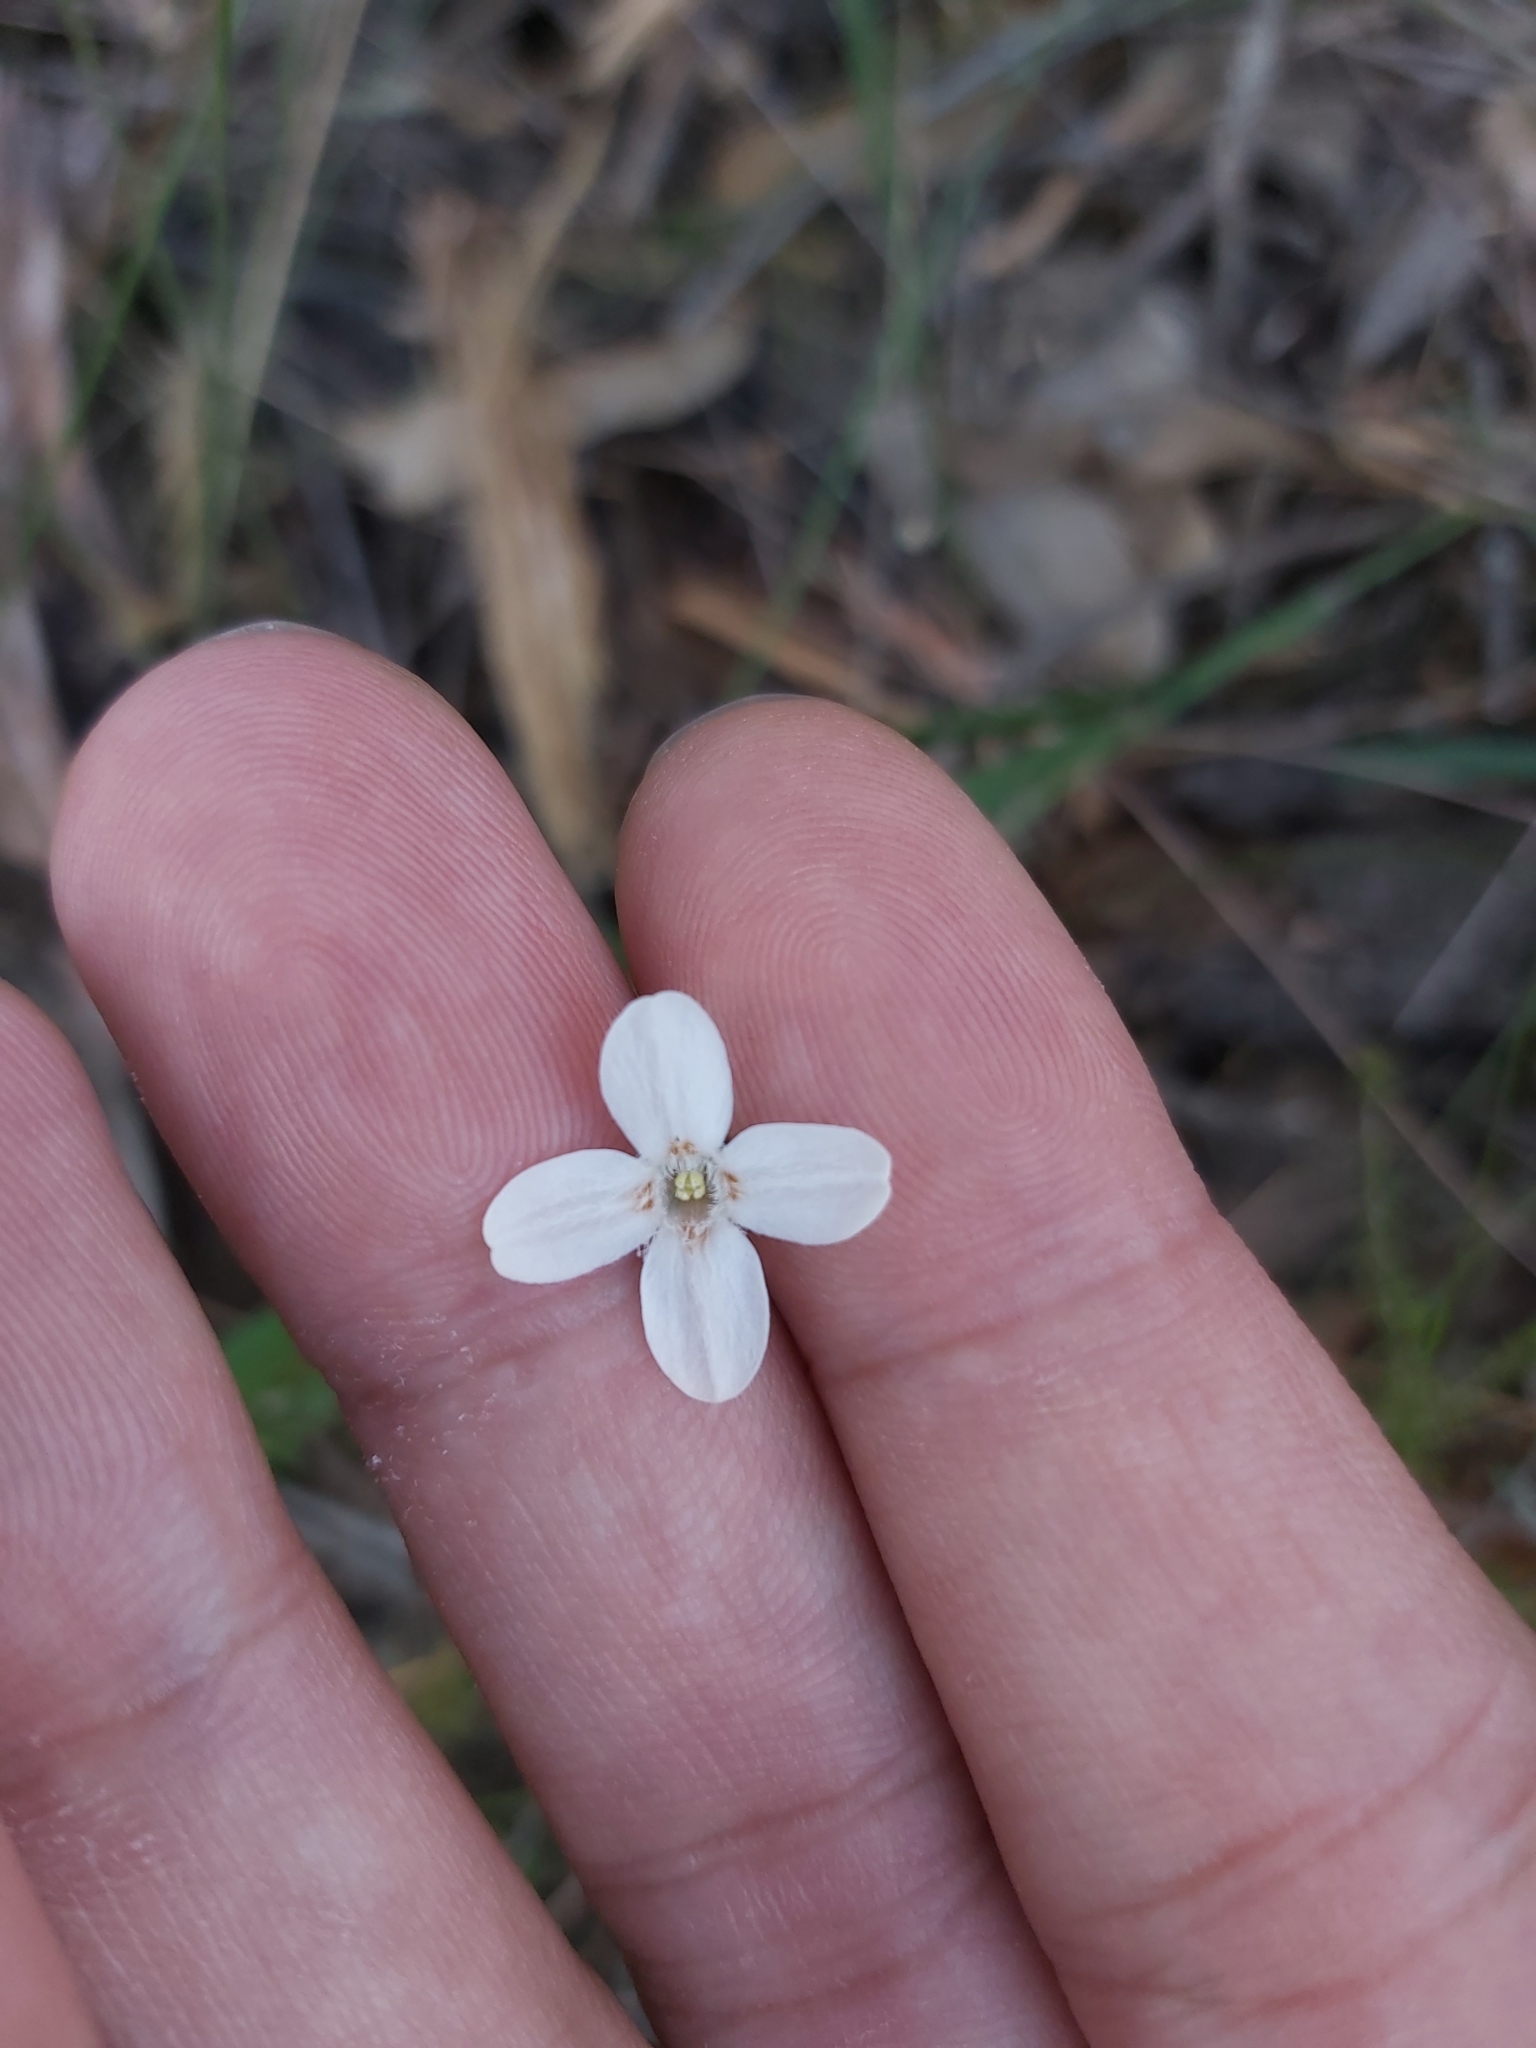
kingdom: Plantae
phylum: Tracheophyta
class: Magnoliopsida
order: Gentianales
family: Loganiaceae
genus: Mitrasacme
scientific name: Mitrasacme polymorpha
